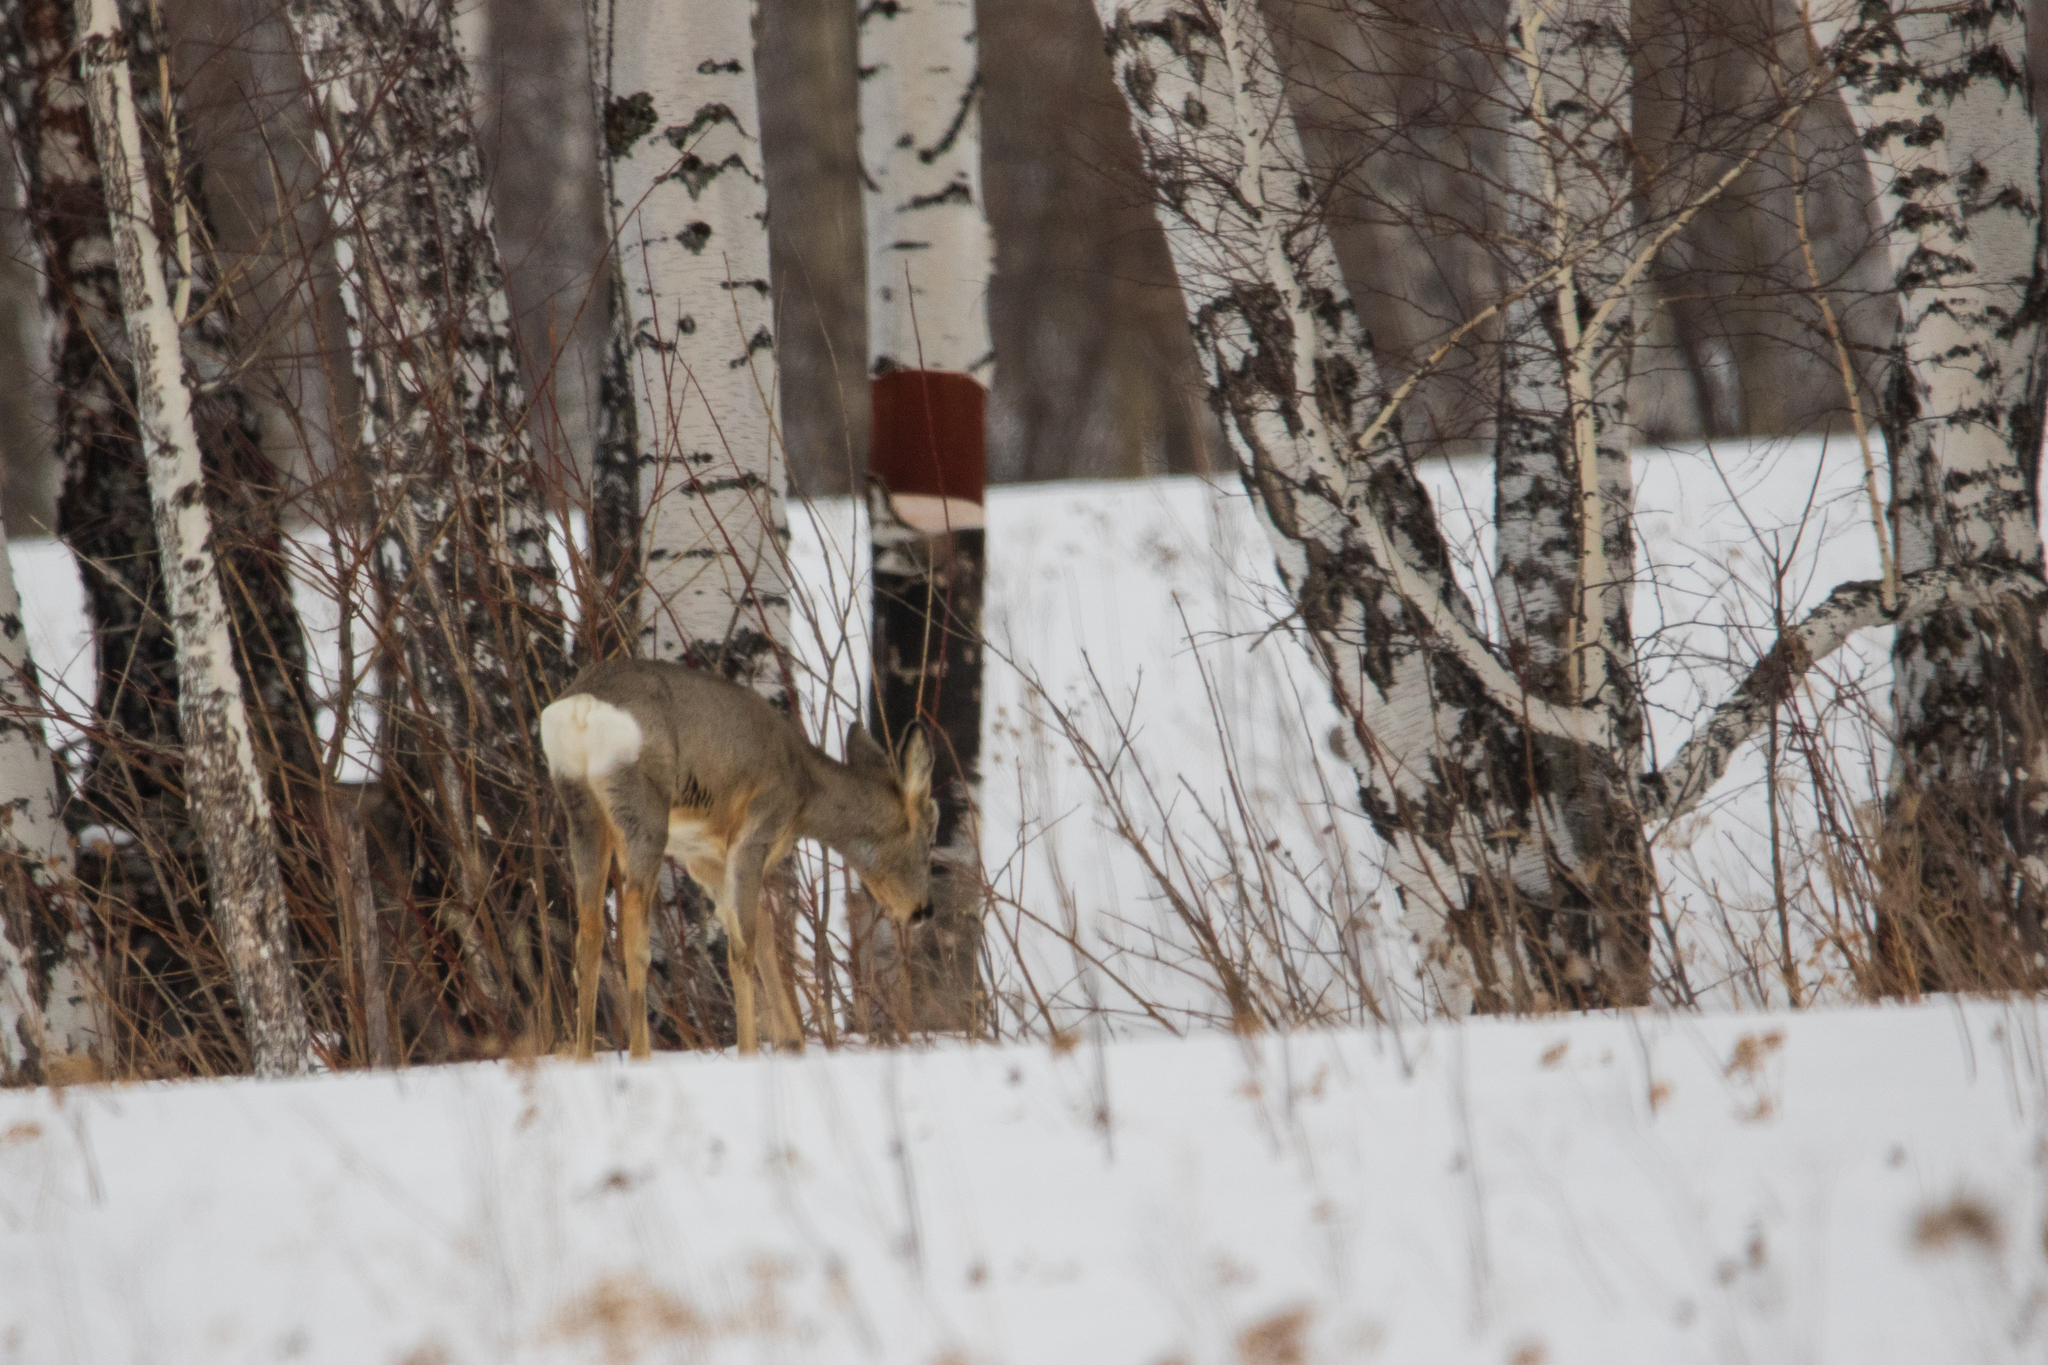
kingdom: Animalia
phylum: Chordata
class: Mammalia
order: Artiodactyla
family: Cervidae
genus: Capreolus
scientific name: Capreolus pygargus
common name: Siberian roe
